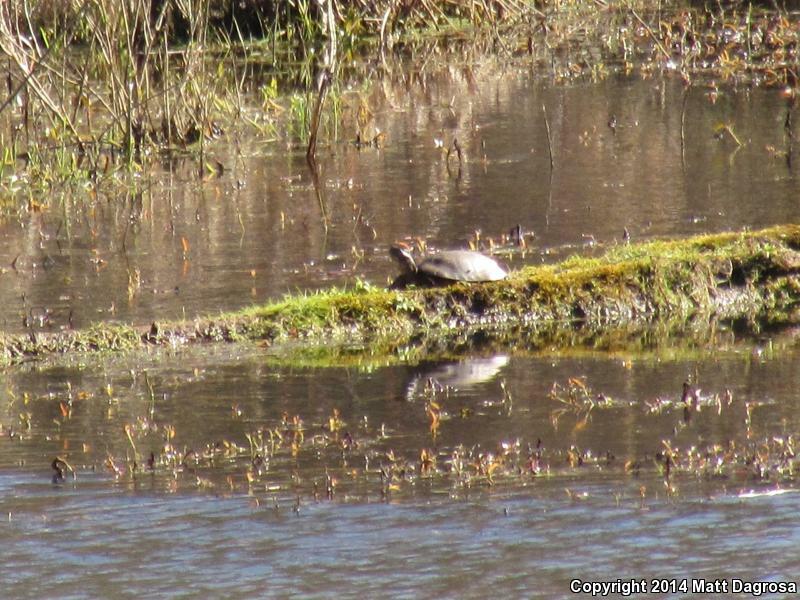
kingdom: Animalia
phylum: Chordata
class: Testudines
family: Emydidae
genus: Actinemys
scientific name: Actinemys marmorata
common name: Western pond turtle
